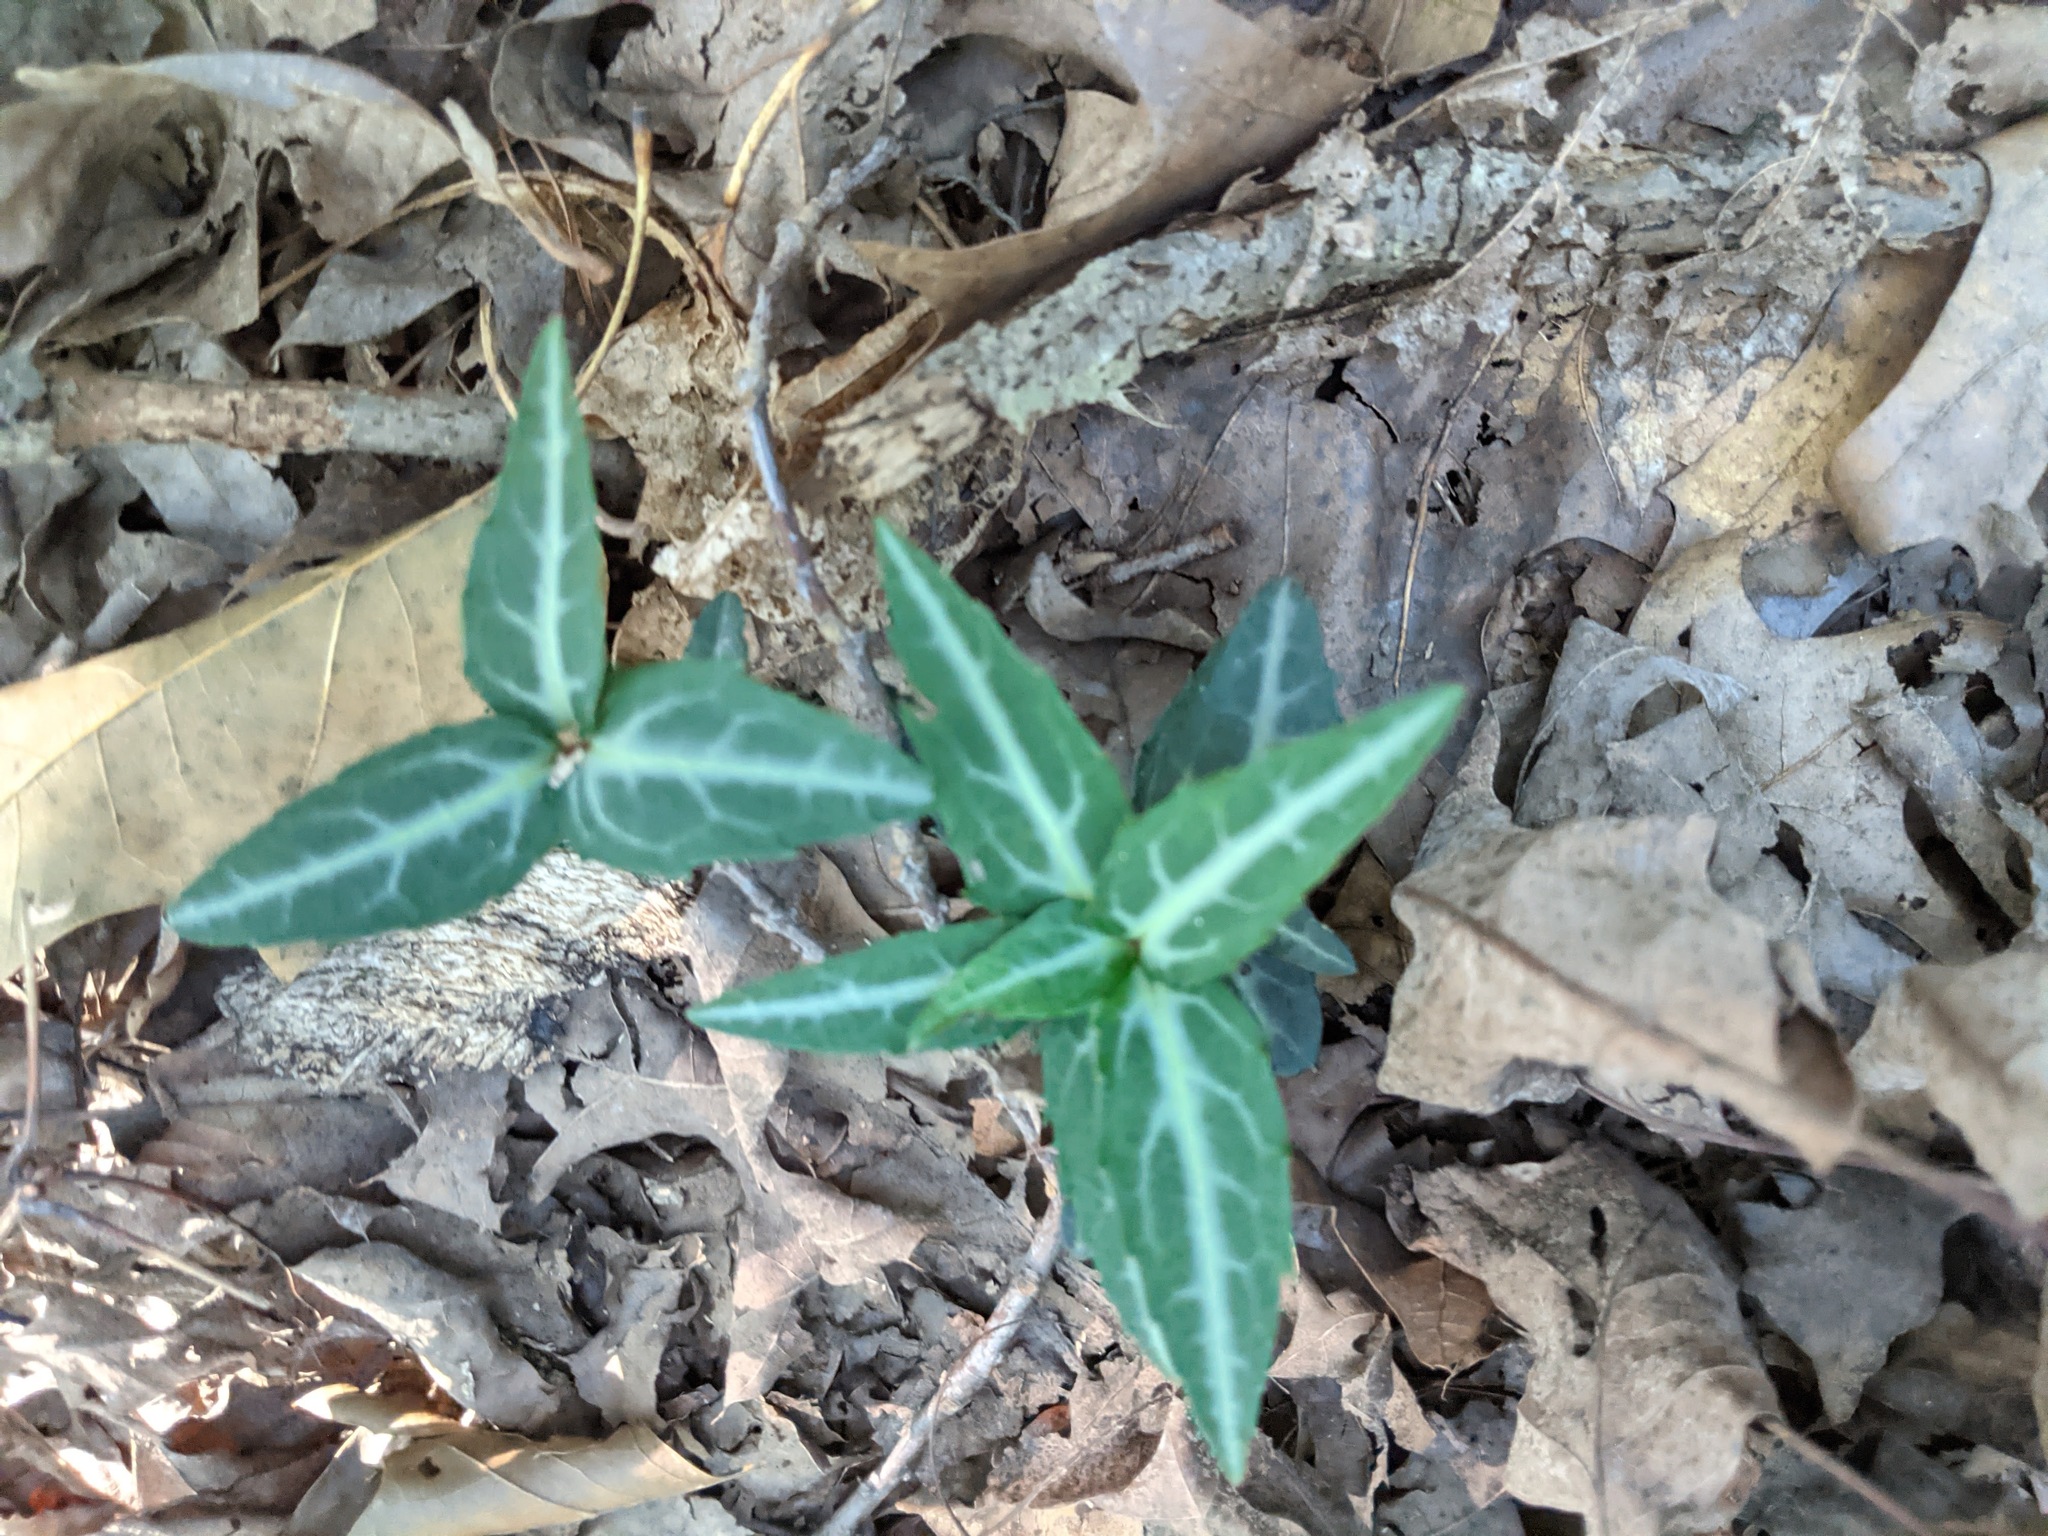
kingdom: Plantae
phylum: Tracheophyta
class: Magnoliopsida
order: Ericales
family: Ericaceae
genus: Chimaphila
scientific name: Chimaphila maculata
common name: Spotted pipsissewa
